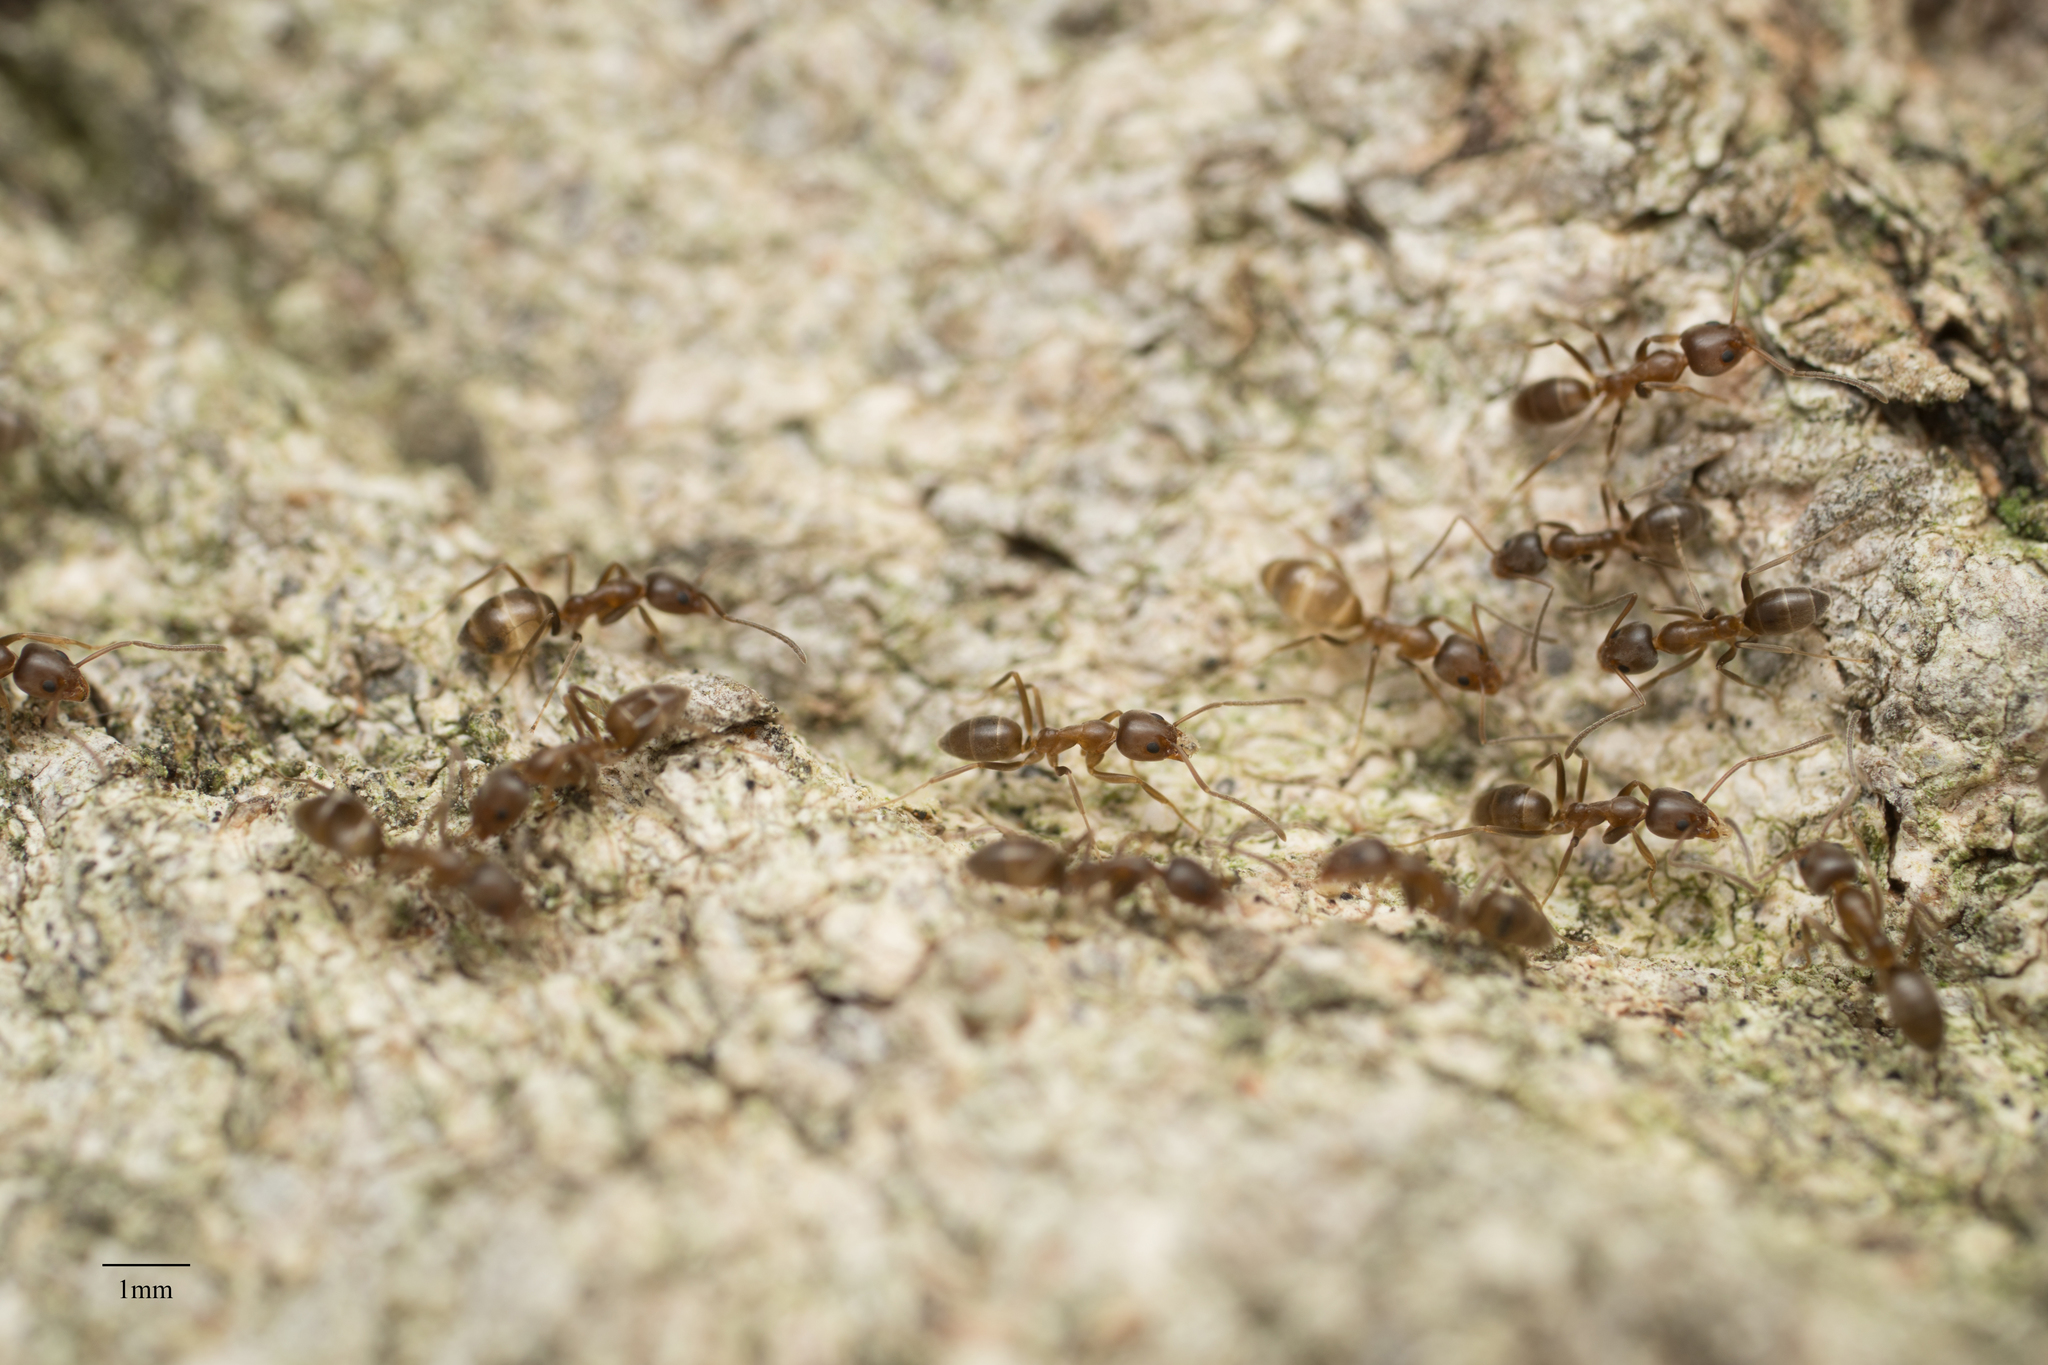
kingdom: Animalia
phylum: Arthropoda
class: Insecta
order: Hymenoptera
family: Formicidae
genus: Linepithema
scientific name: Linepithema humile
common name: Argentine ant
